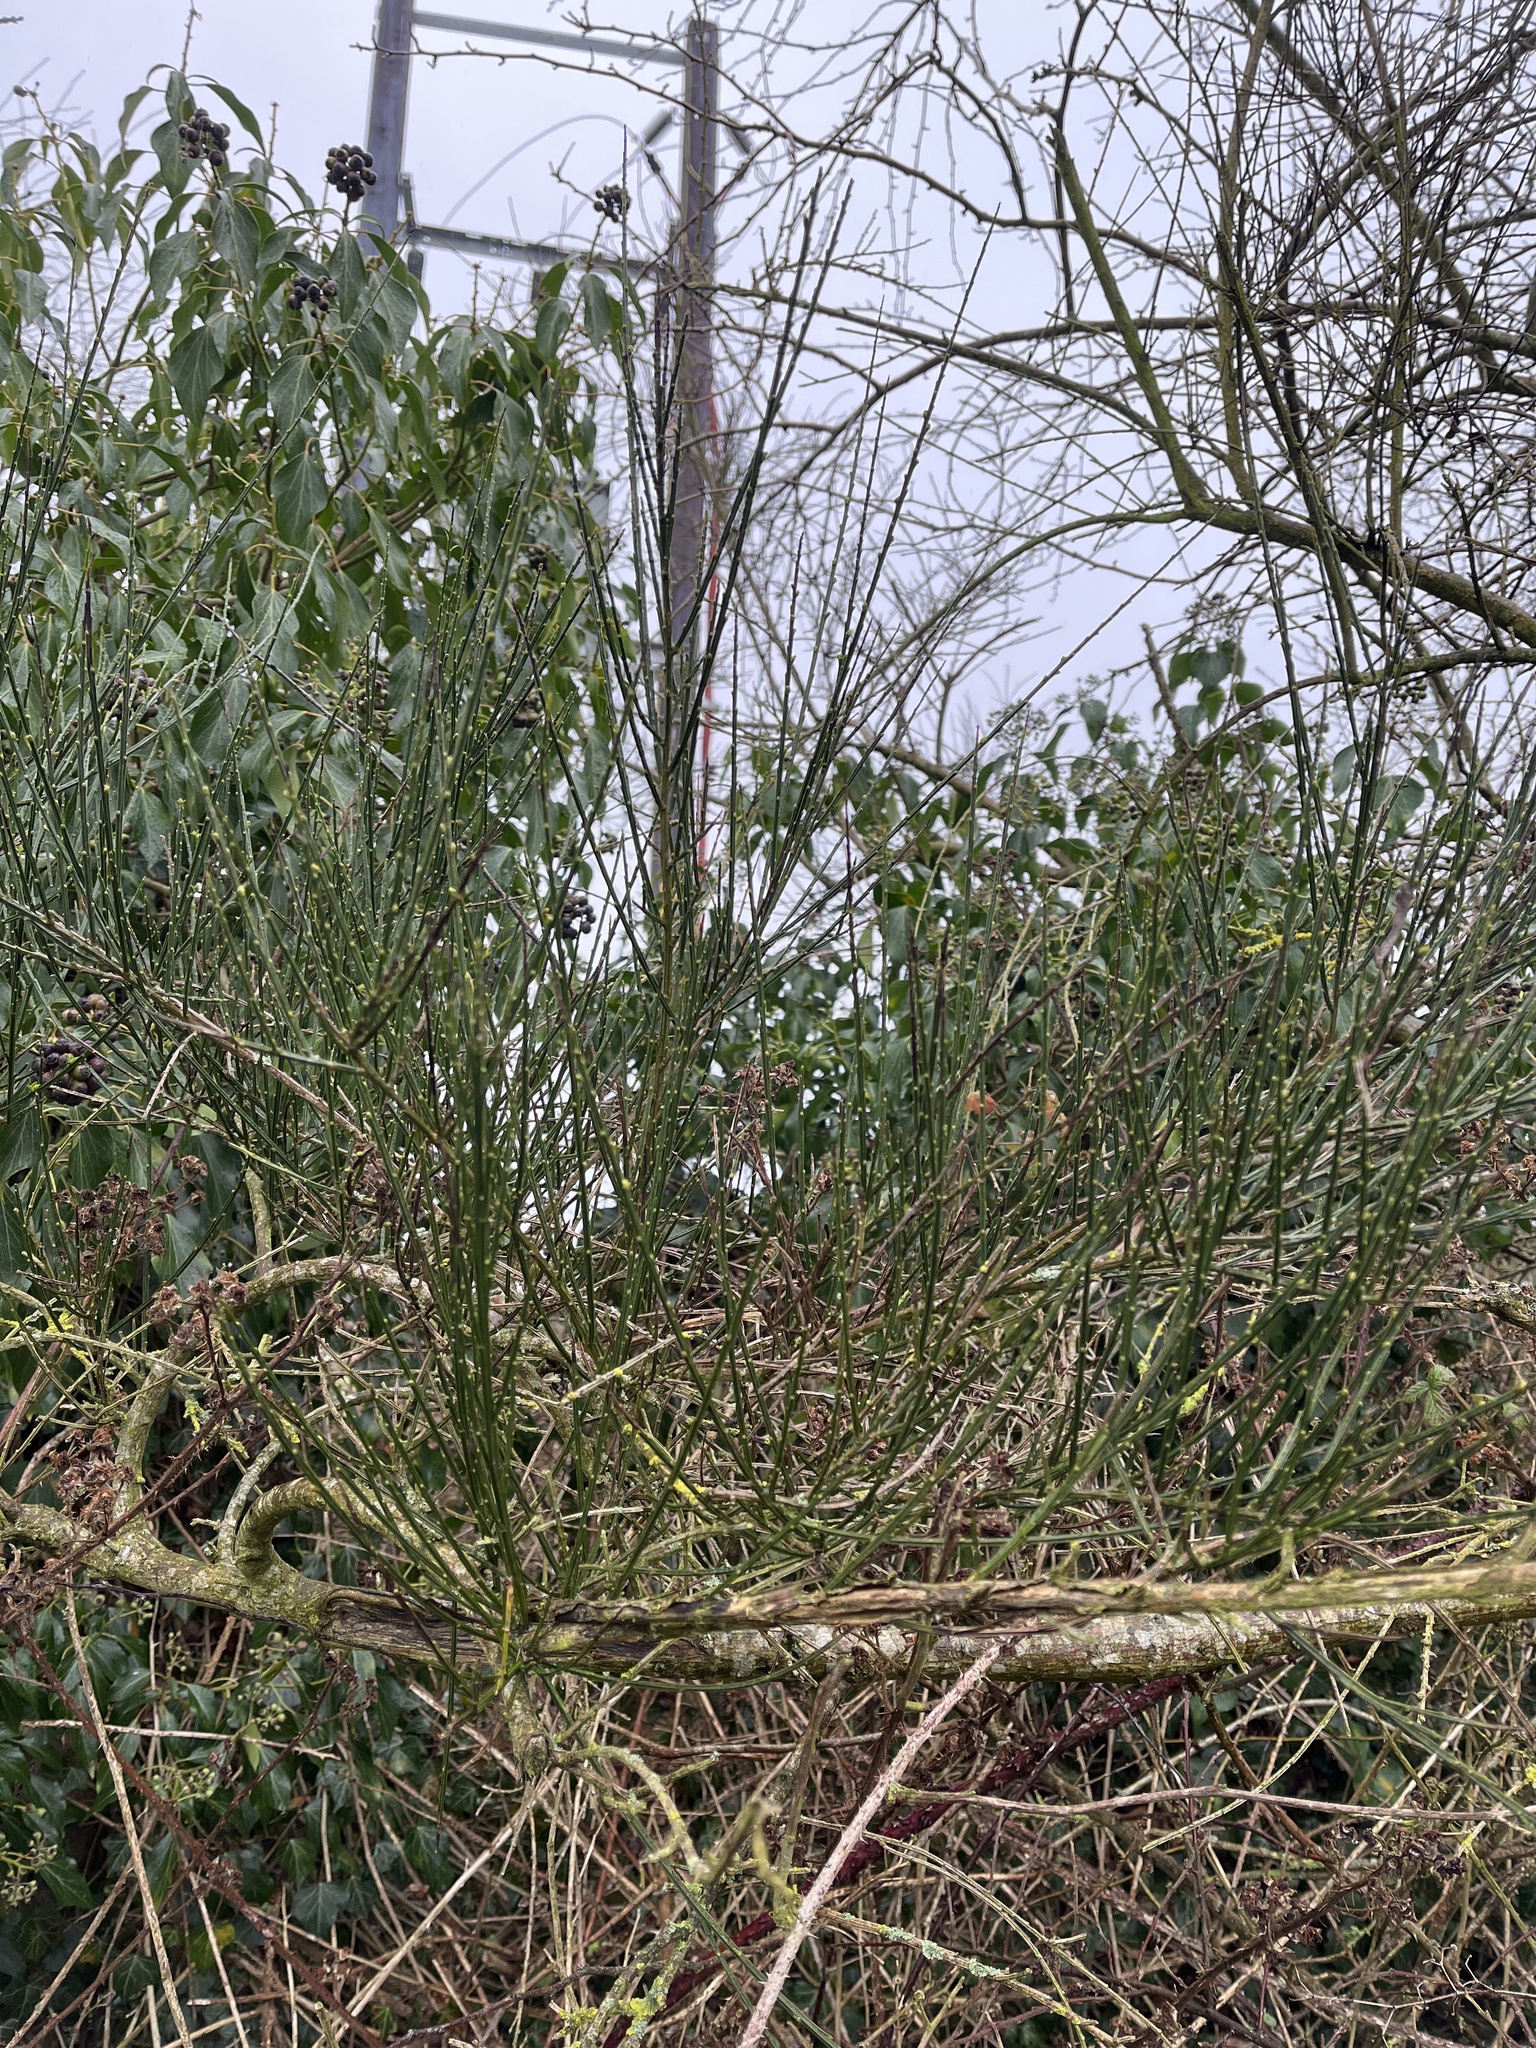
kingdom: Plantae
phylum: Tracheophyta
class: Magnoliopsida
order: Fabales
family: Fabaceae
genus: Cytisus
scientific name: Cytisus scoparius
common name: Scotch broom
